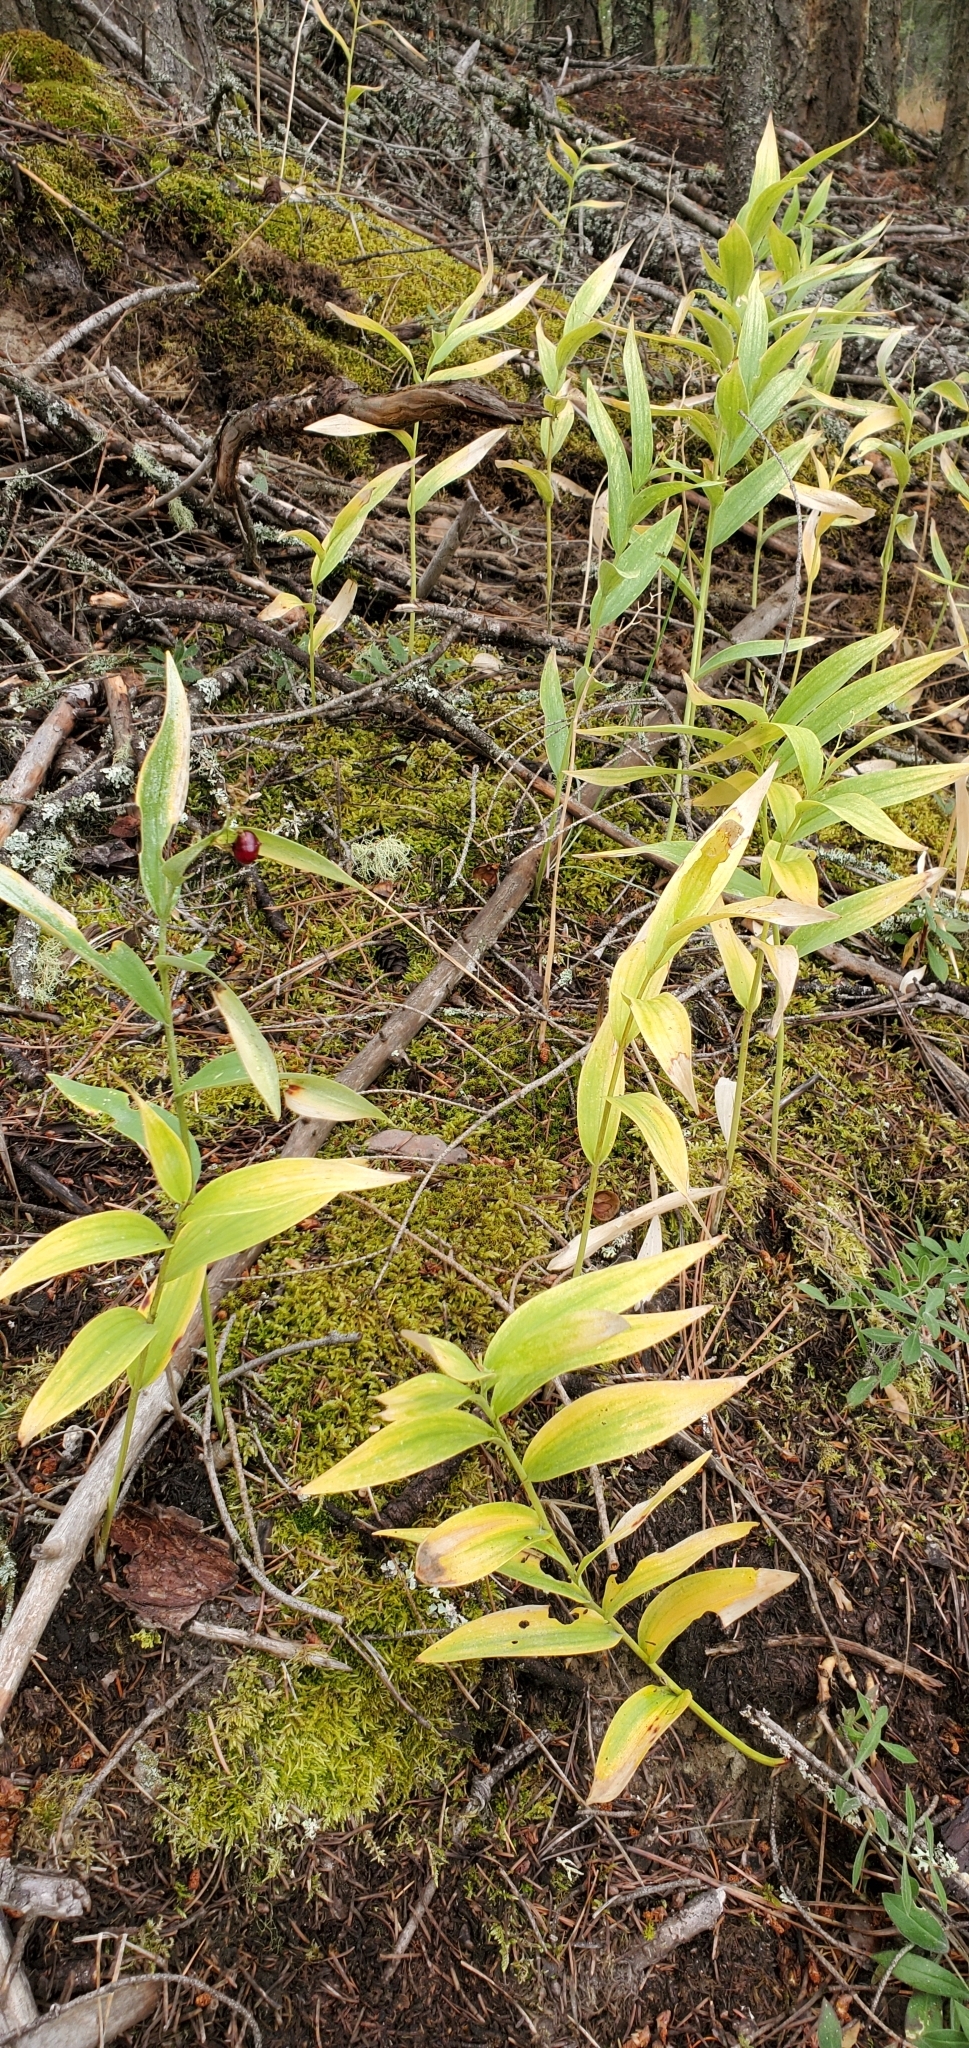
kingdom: Plantae
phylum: Tracheophyta
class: Liliopsida
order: Asparagales
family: Asparagaceae
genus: Maianthemum
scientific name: Maianthemum stellatum
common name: Little false solomon's seal
